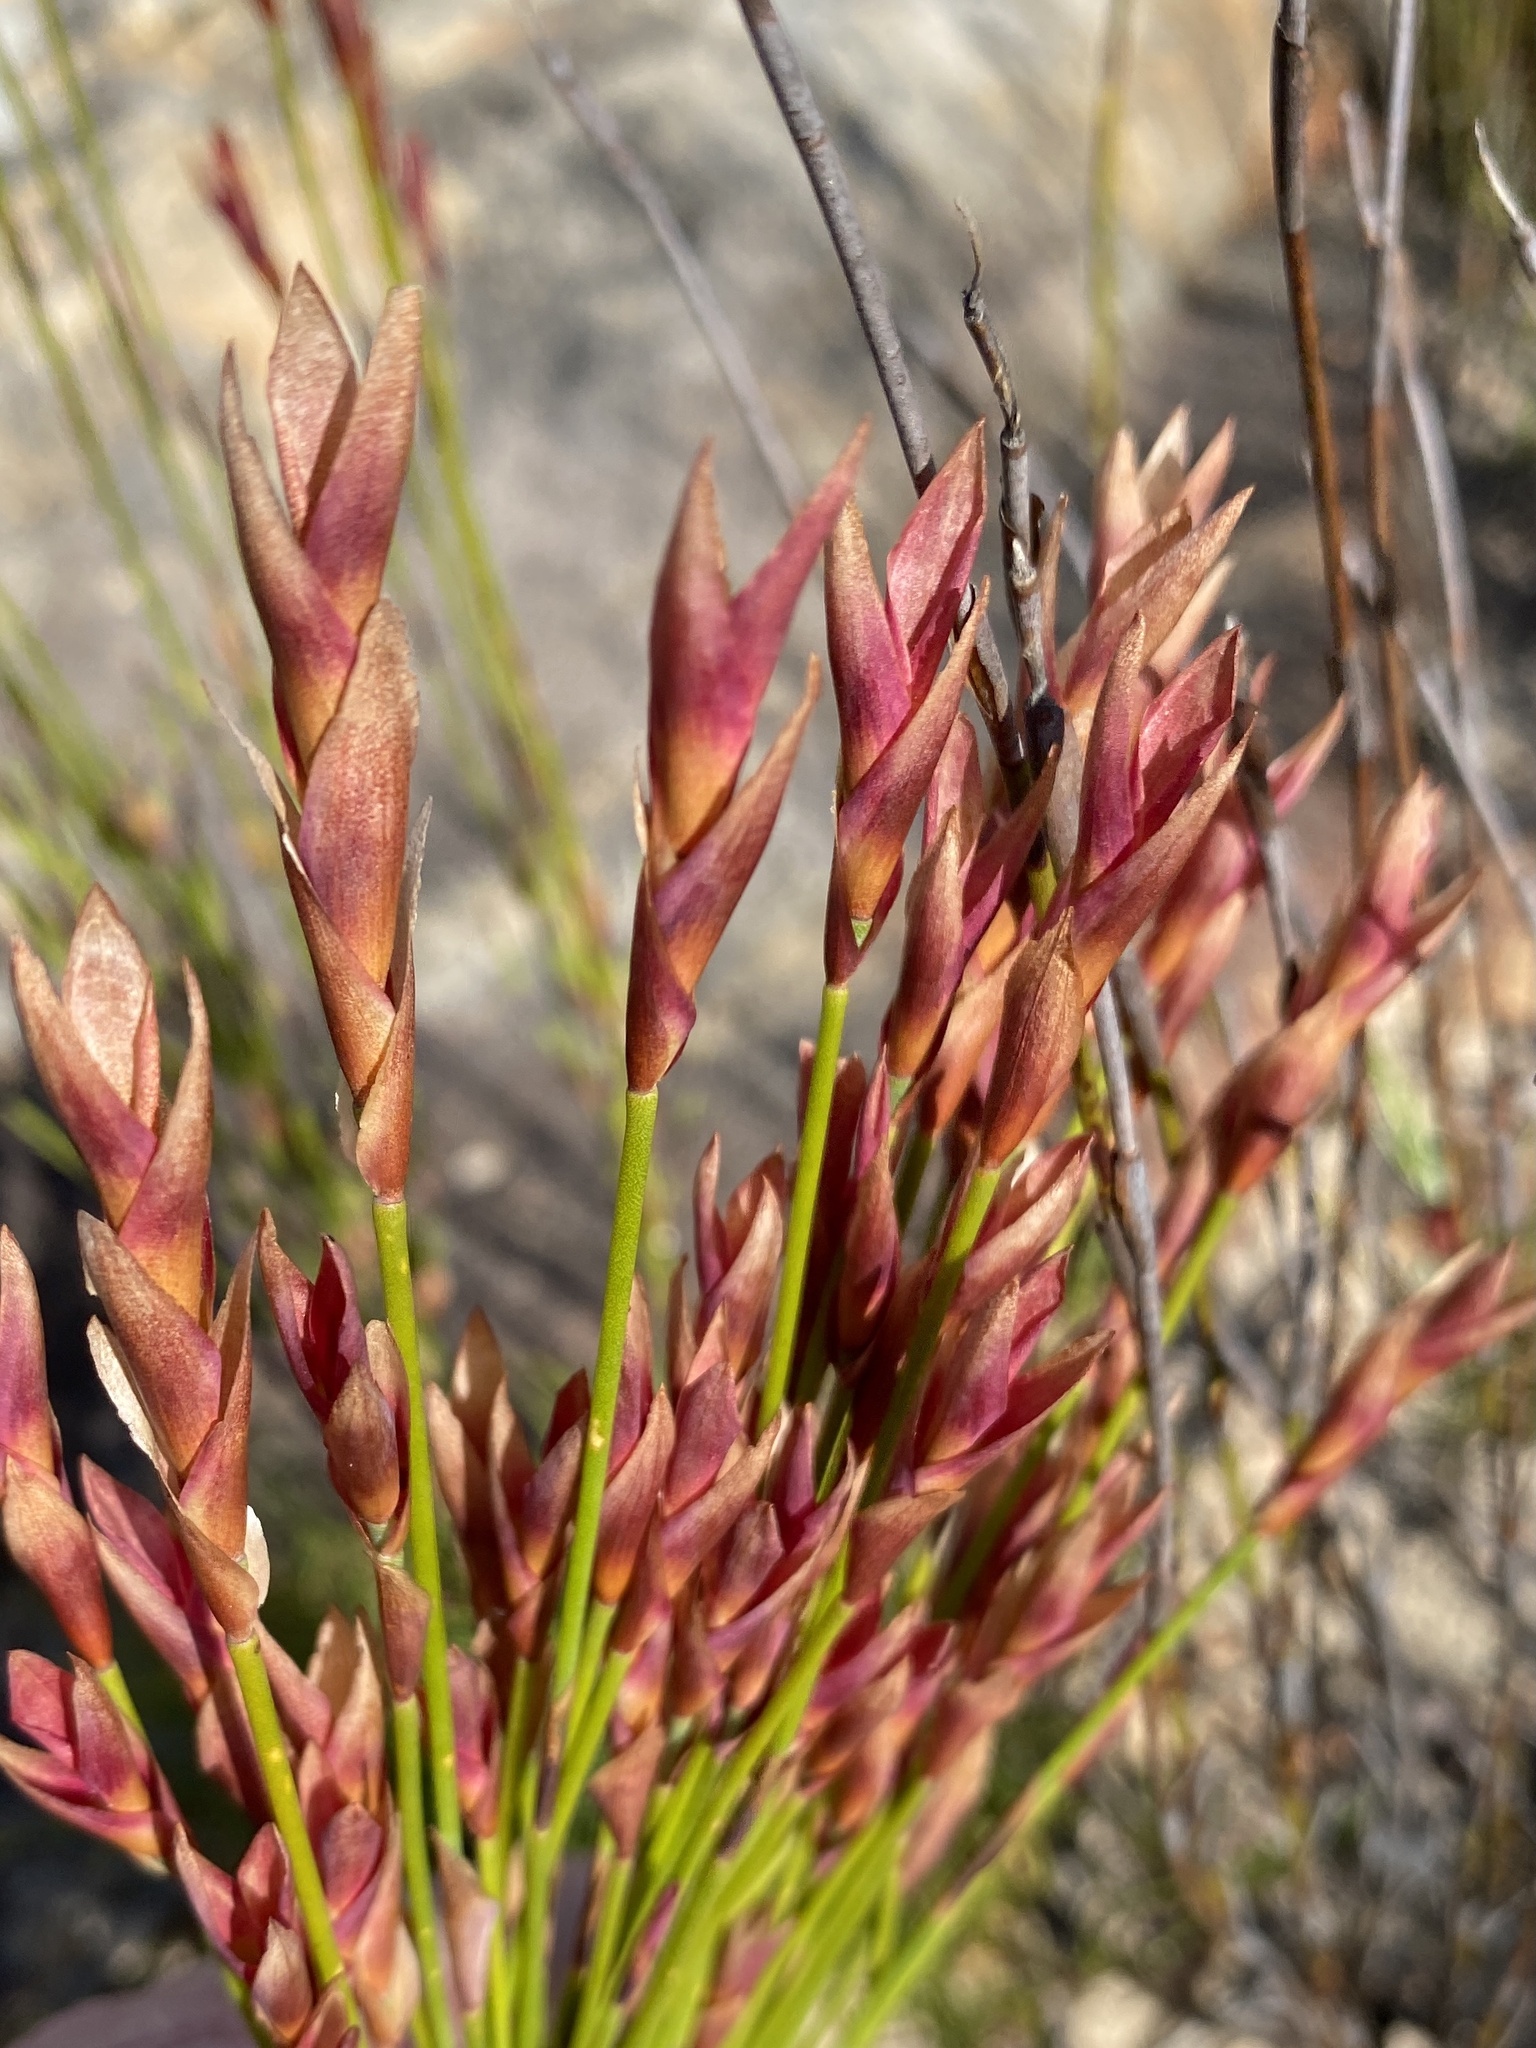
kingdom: Plantae
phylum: Tracheophyta
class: Liliopsida
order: Poales
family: Restionaceae
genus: Elegia
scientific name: Elegia stipularis
